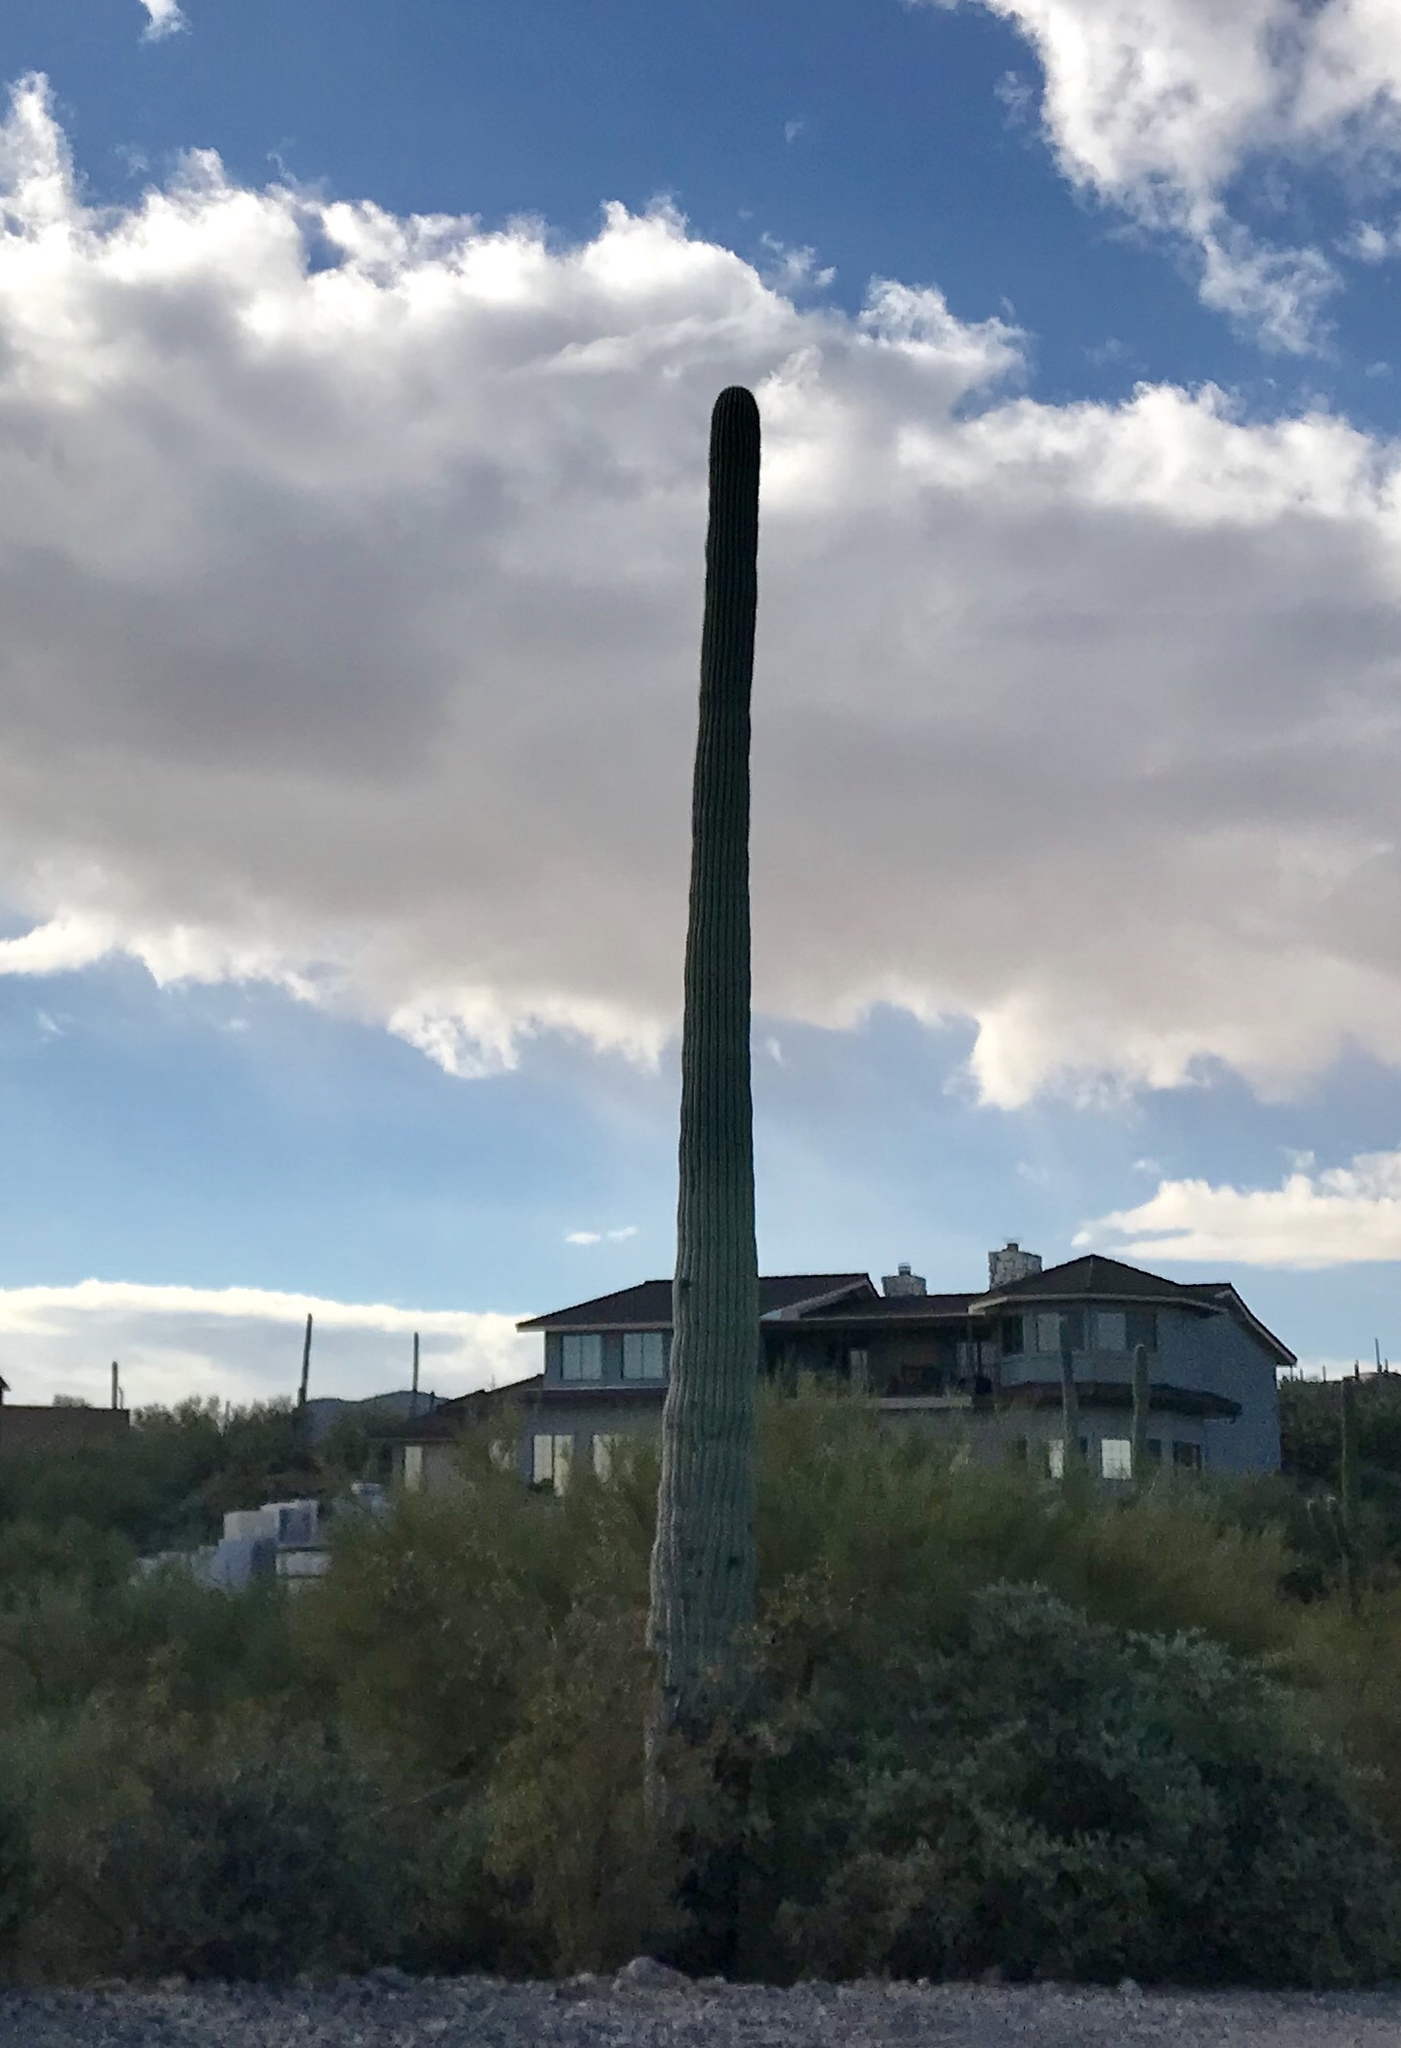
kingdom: Plantae
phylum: Tracheophyta
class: Magnoliopsida
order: Caryophyllales
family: Cactaceae
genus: Carnegiea
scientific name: Carnegiea gigantea
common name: Saguaro
